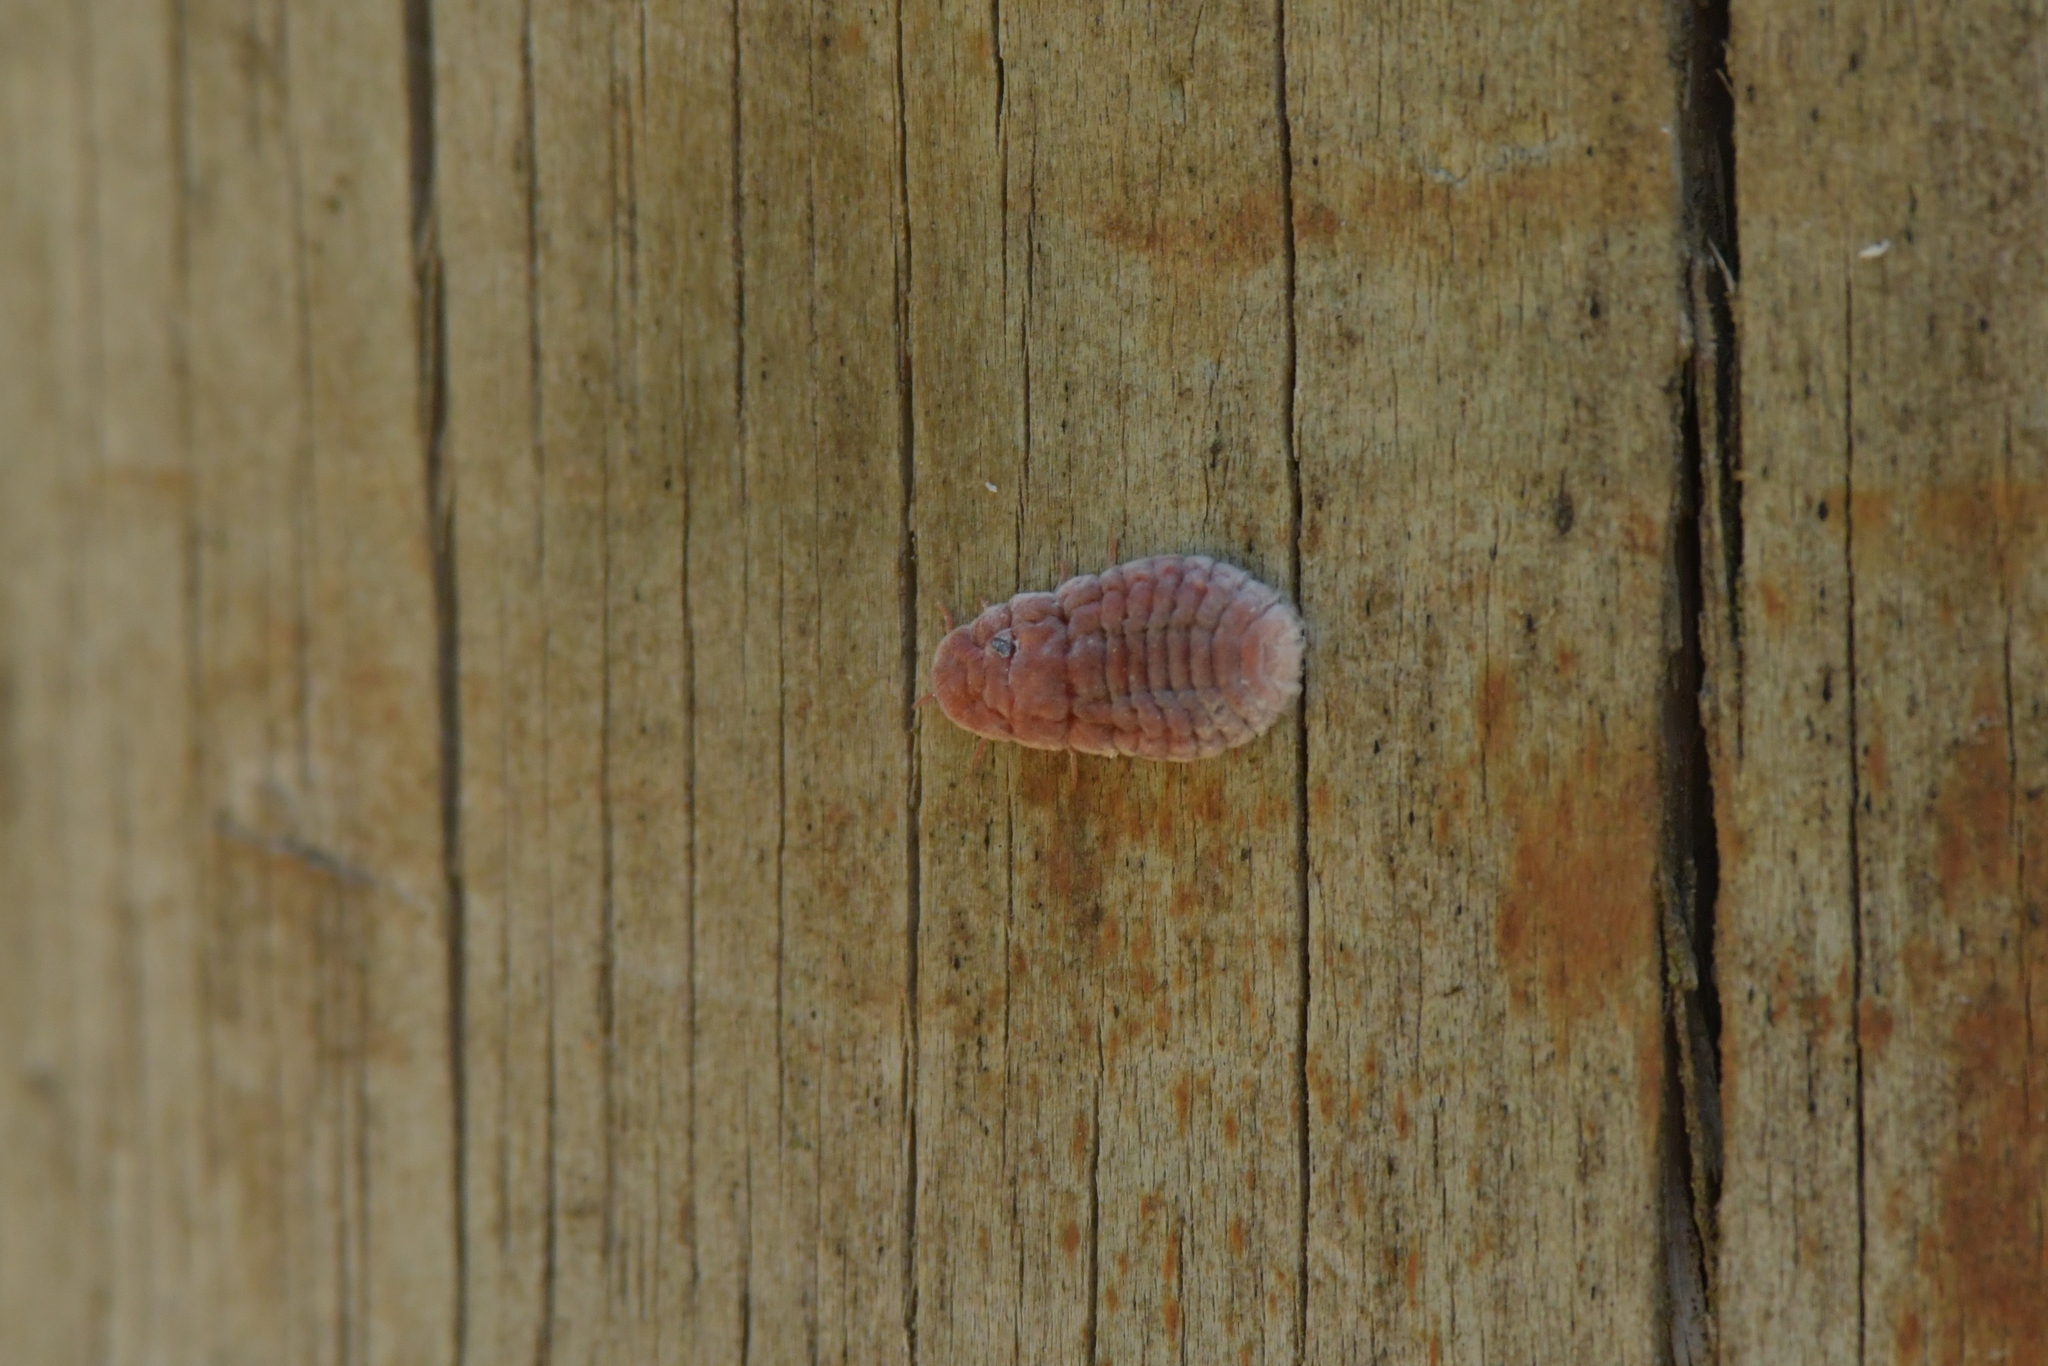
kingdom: Animalia
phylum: Arthropoda
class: Insecta
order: Hemiptera
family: Margarodidae
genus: Coelostomidia
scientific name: Coelostomidia zealandica
